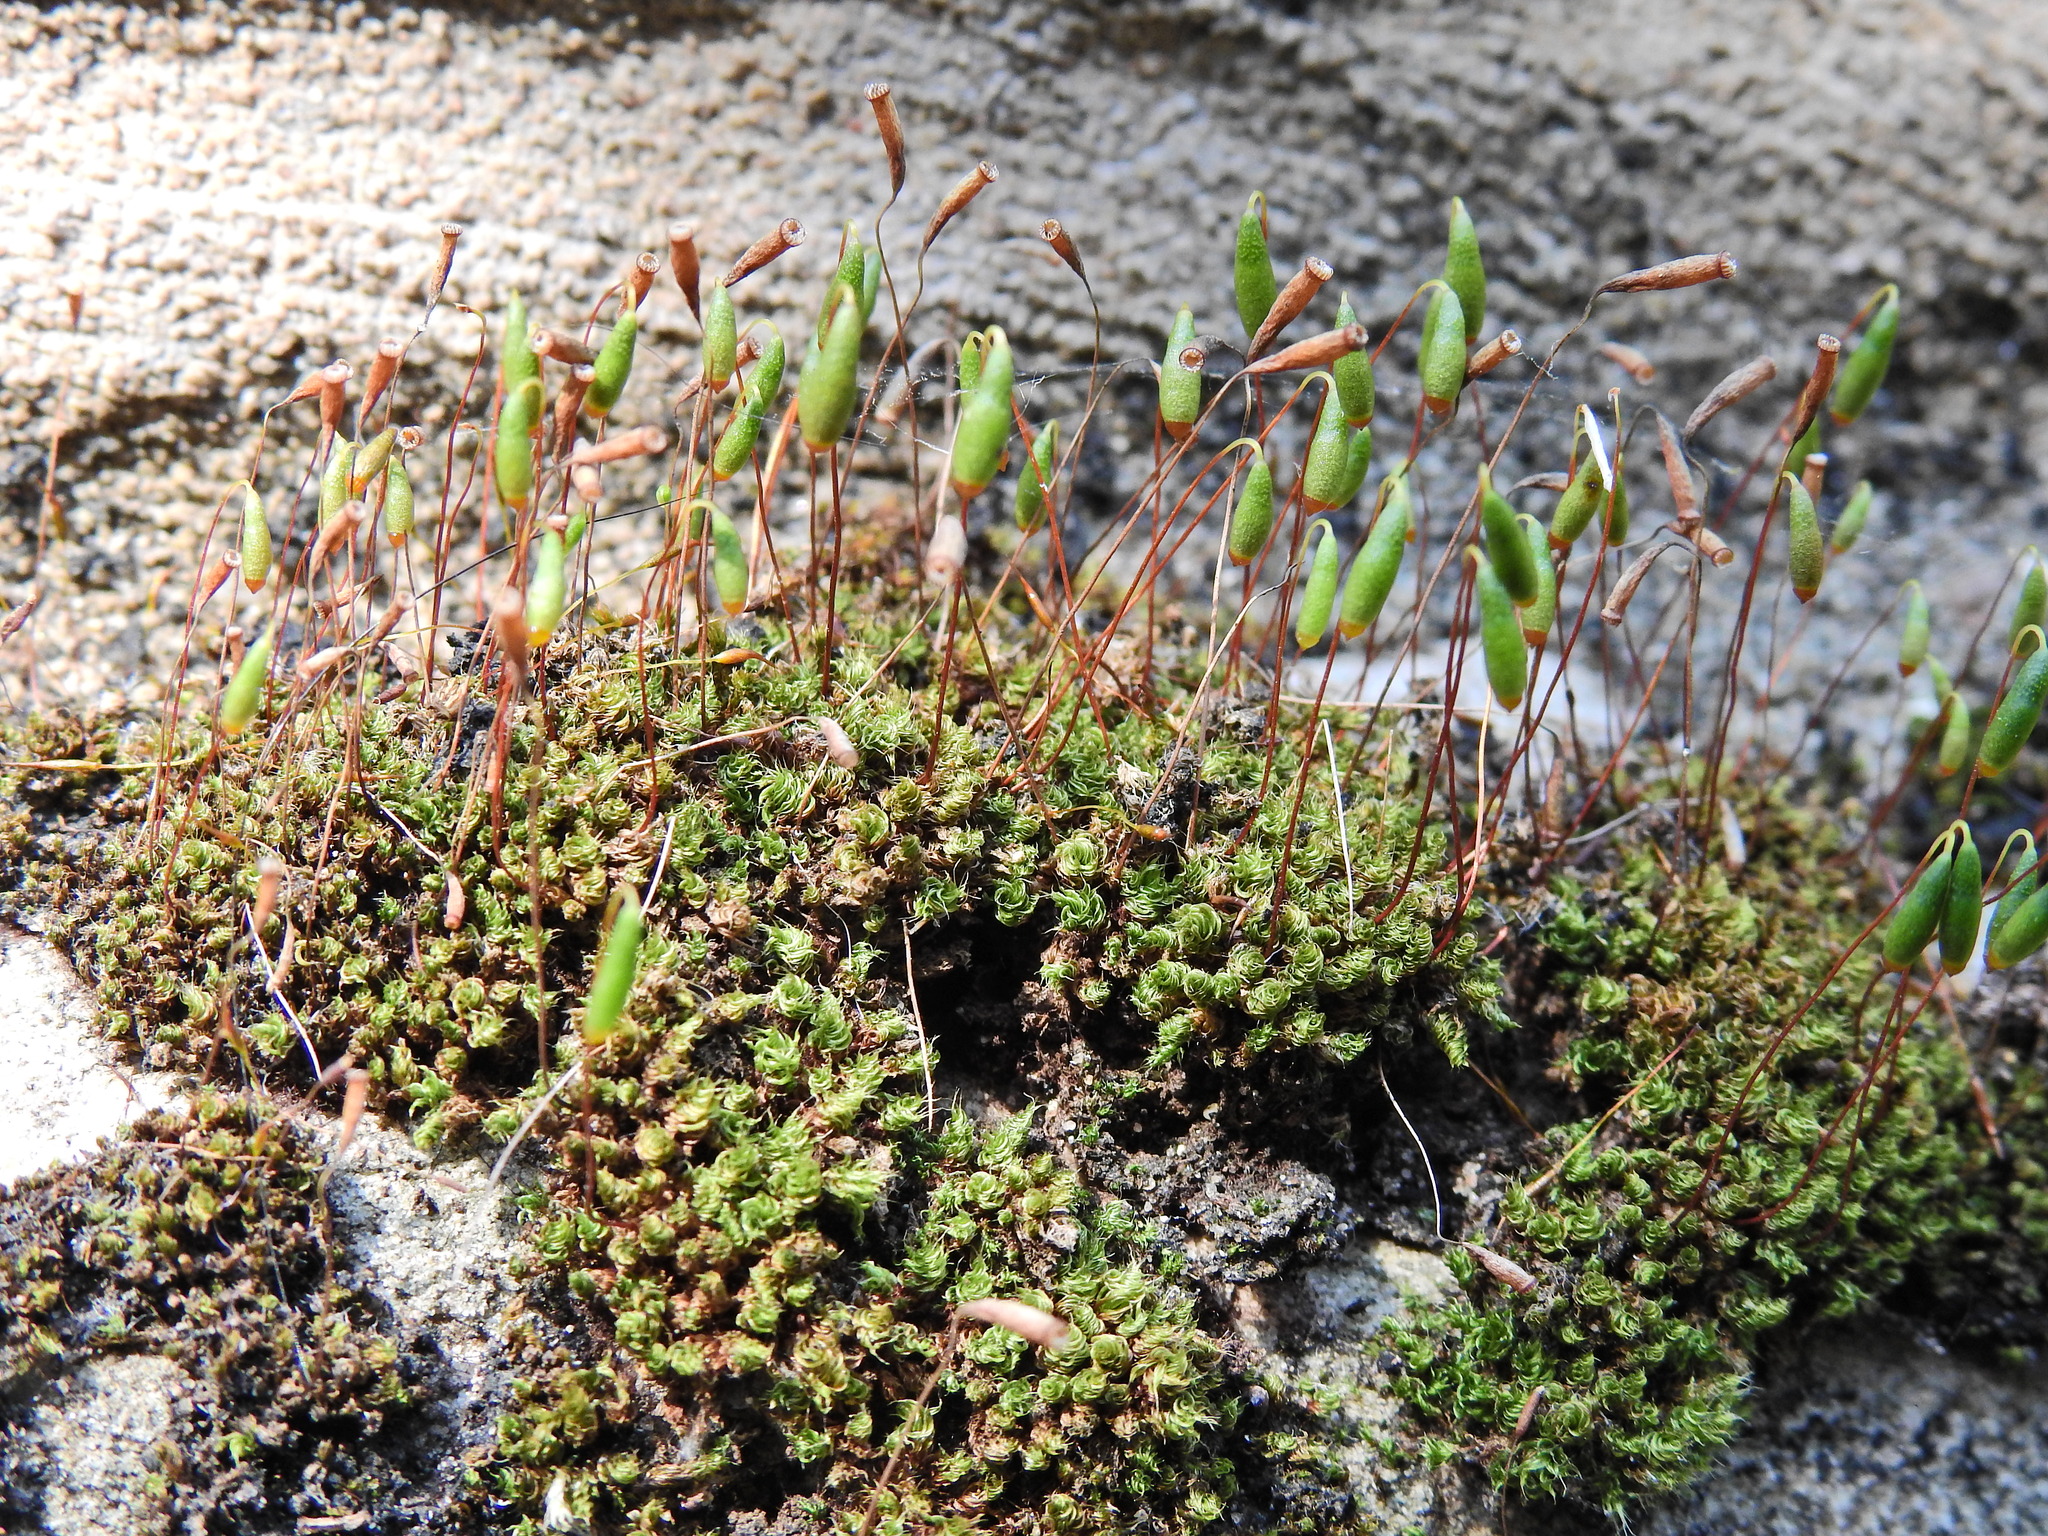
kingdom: Plantae
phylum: Bryophyta
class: Bryopsida
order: Bryales
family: Bryaceae
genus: Rosulabryum
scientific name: Rosulabryum capillare
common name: Capillary thread-moss
